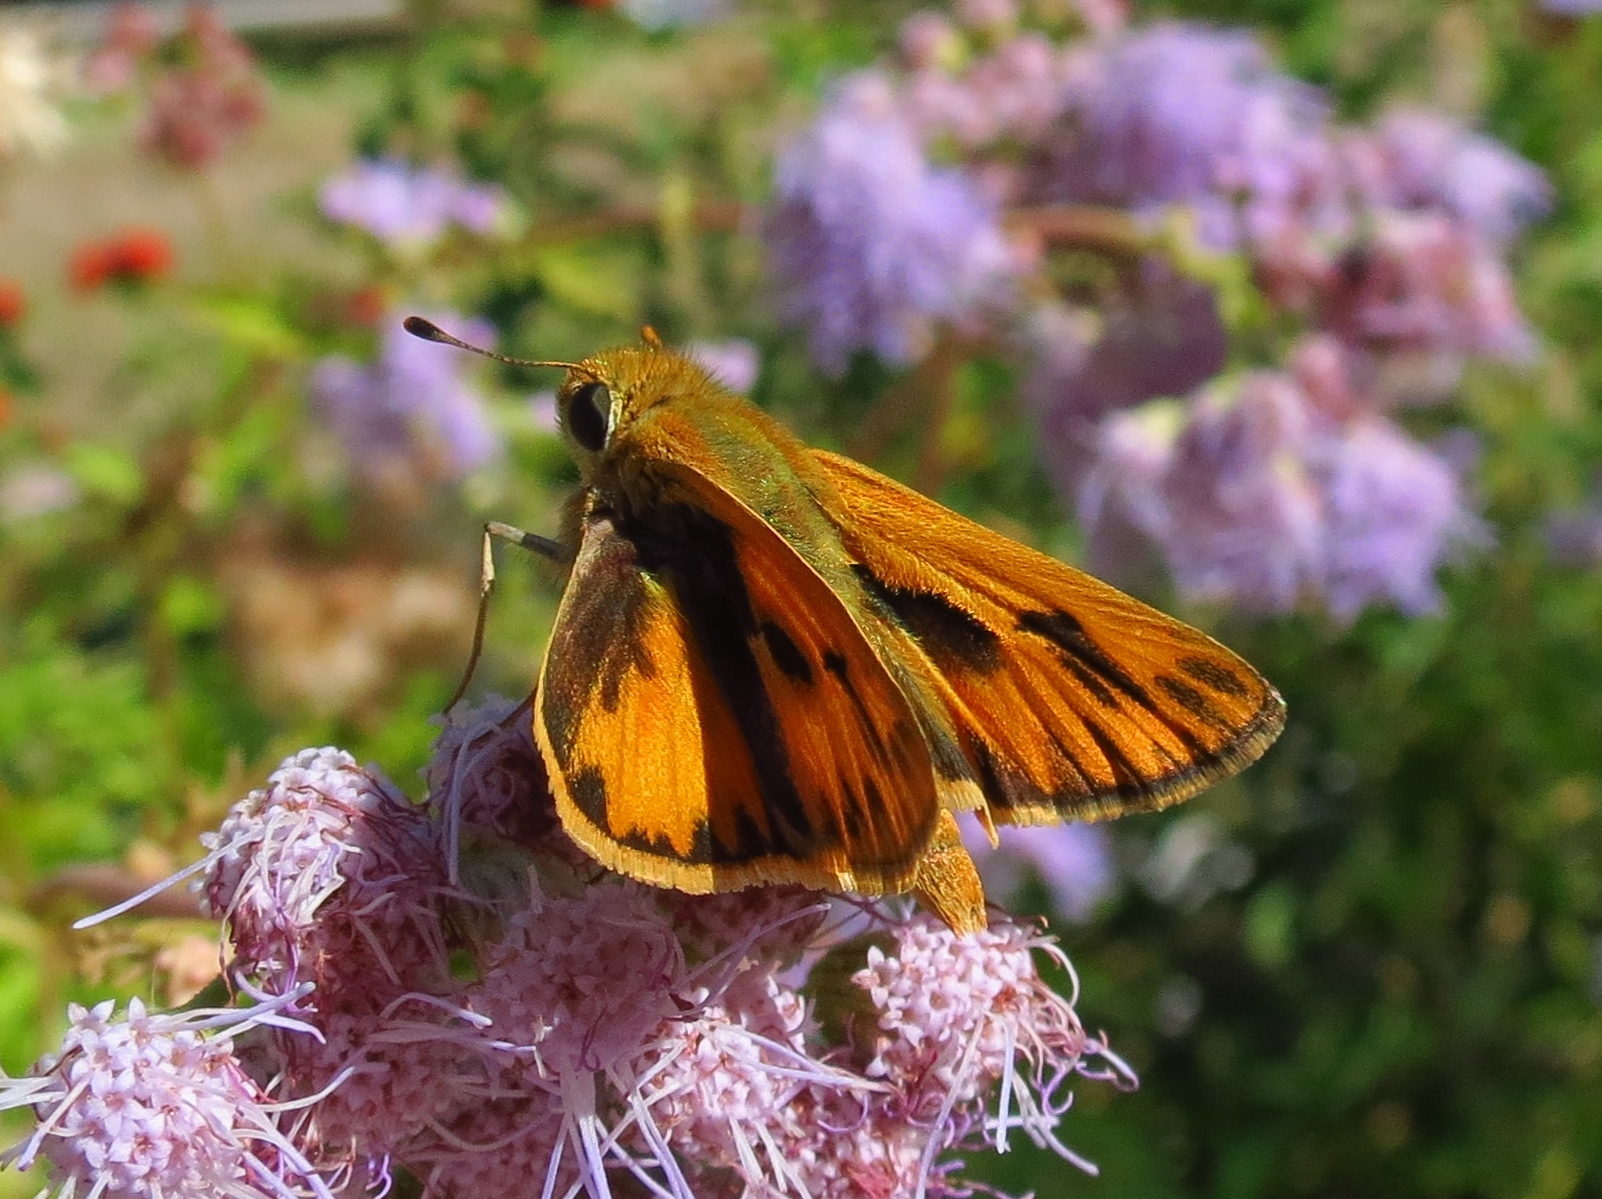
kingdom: Animalia
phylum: Arthropoda
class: Insecta
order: Lepidoptera
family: Hesperiidae
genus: Hylephila
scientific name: Hylephila phyleus
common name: Fiery skipper
